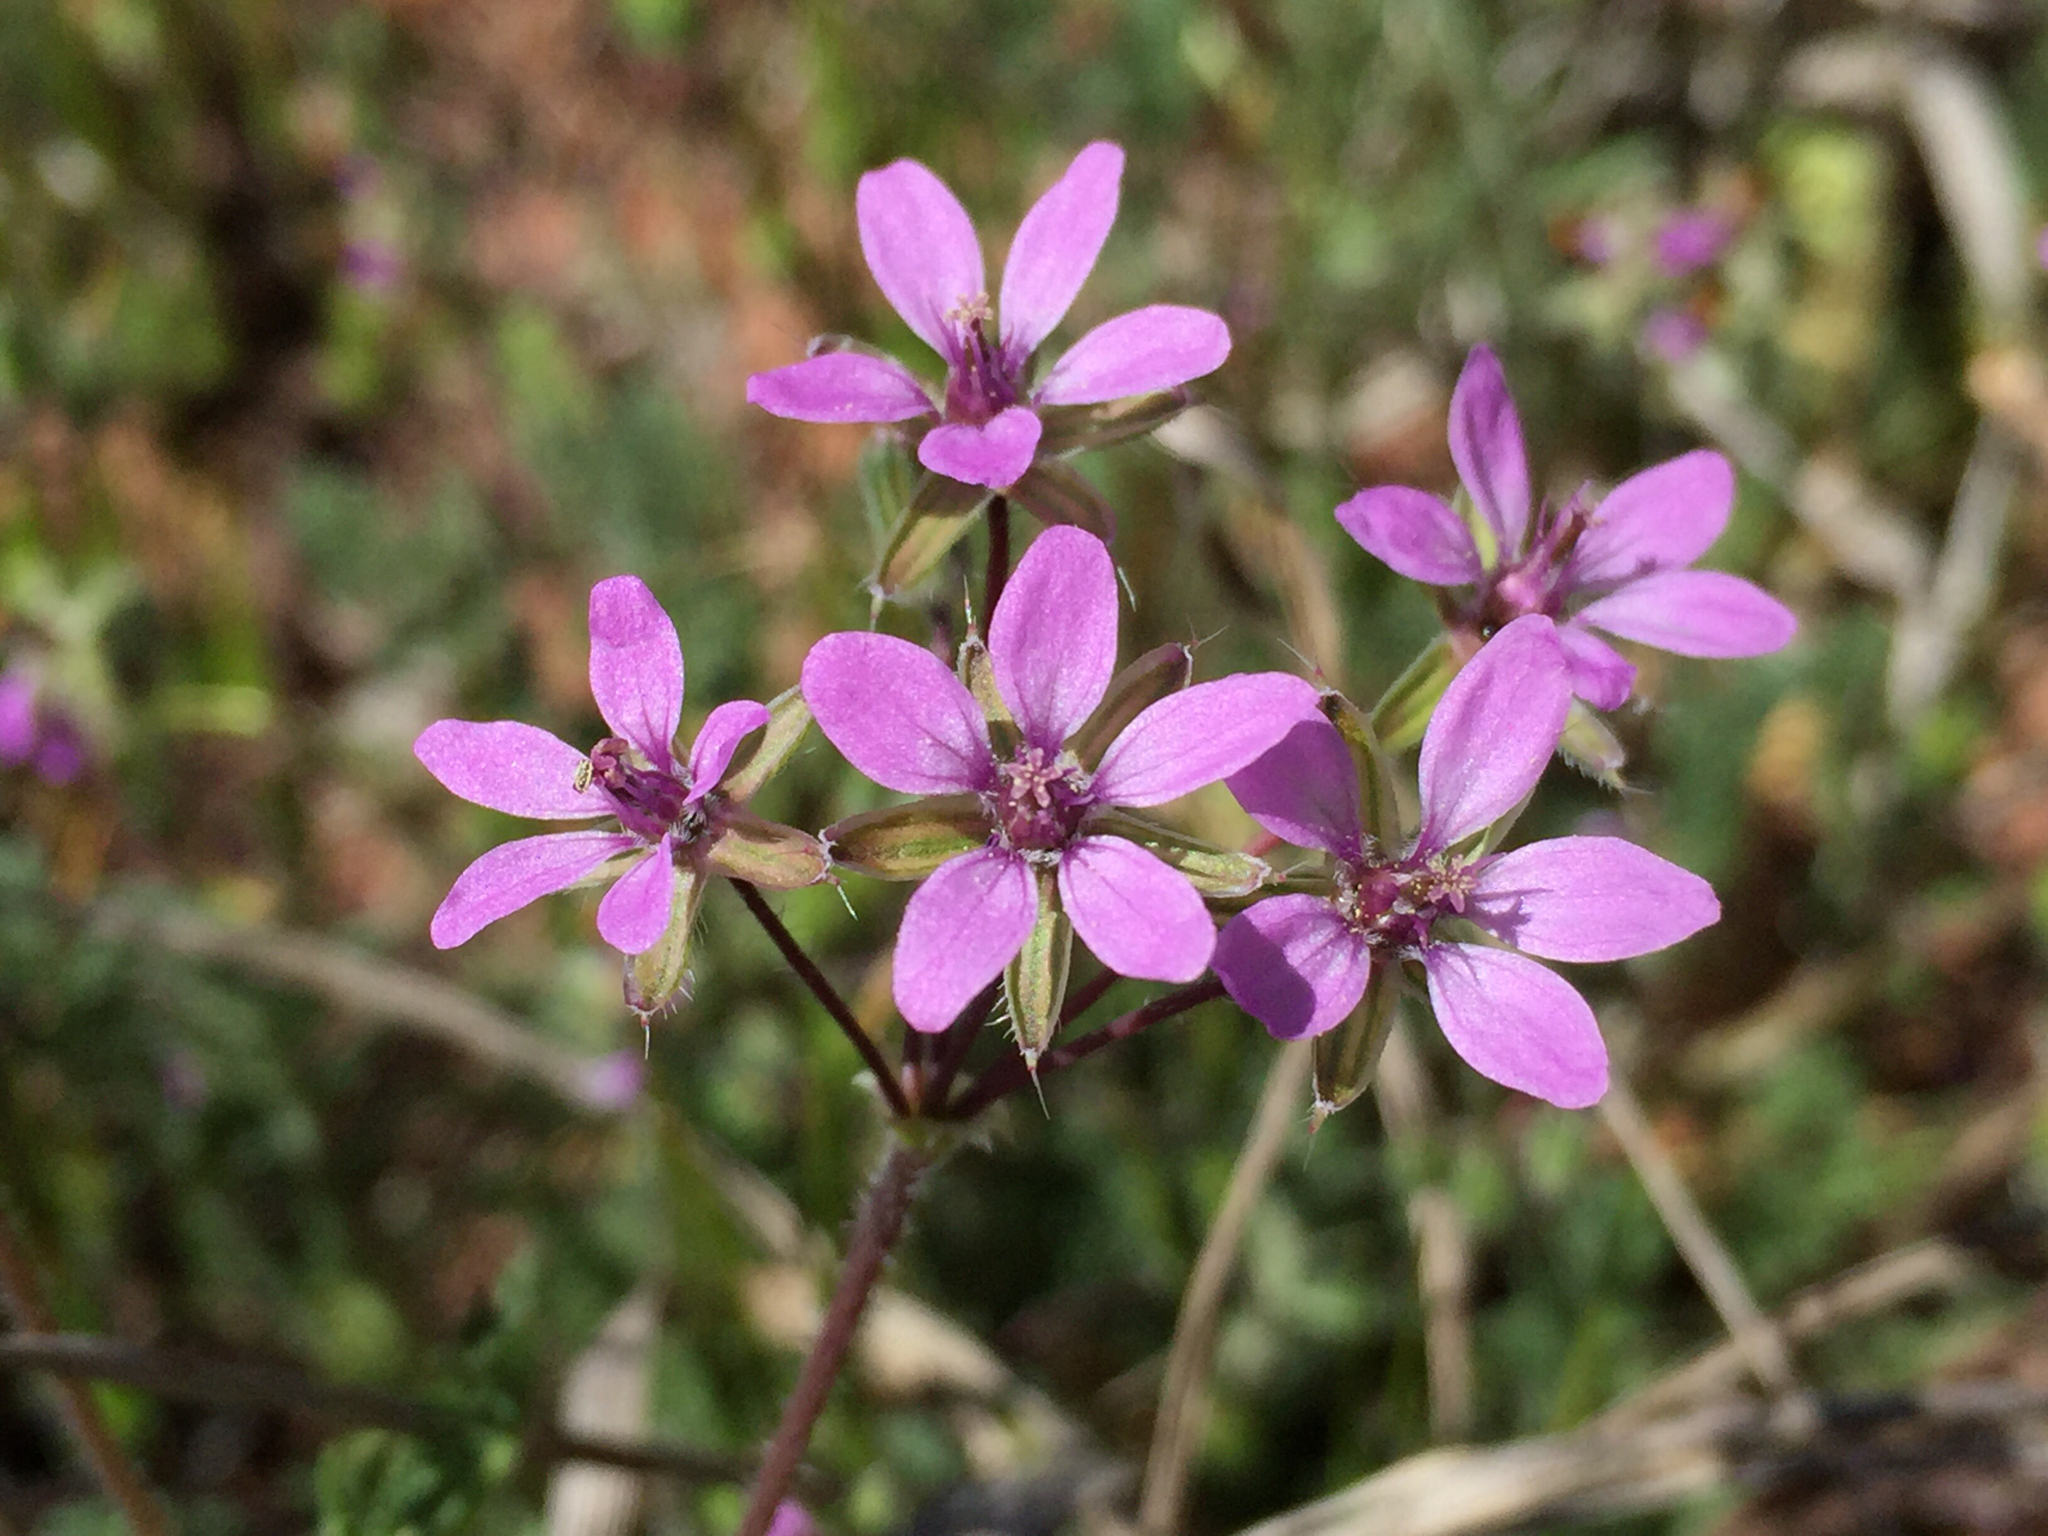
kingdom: Plantae
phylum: Tracheophyta
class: Magnoliopsida
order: Geraniales
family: Geraniaceae
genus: Erodium
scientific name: Erodium cicutarium
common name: Common stork's-bill
